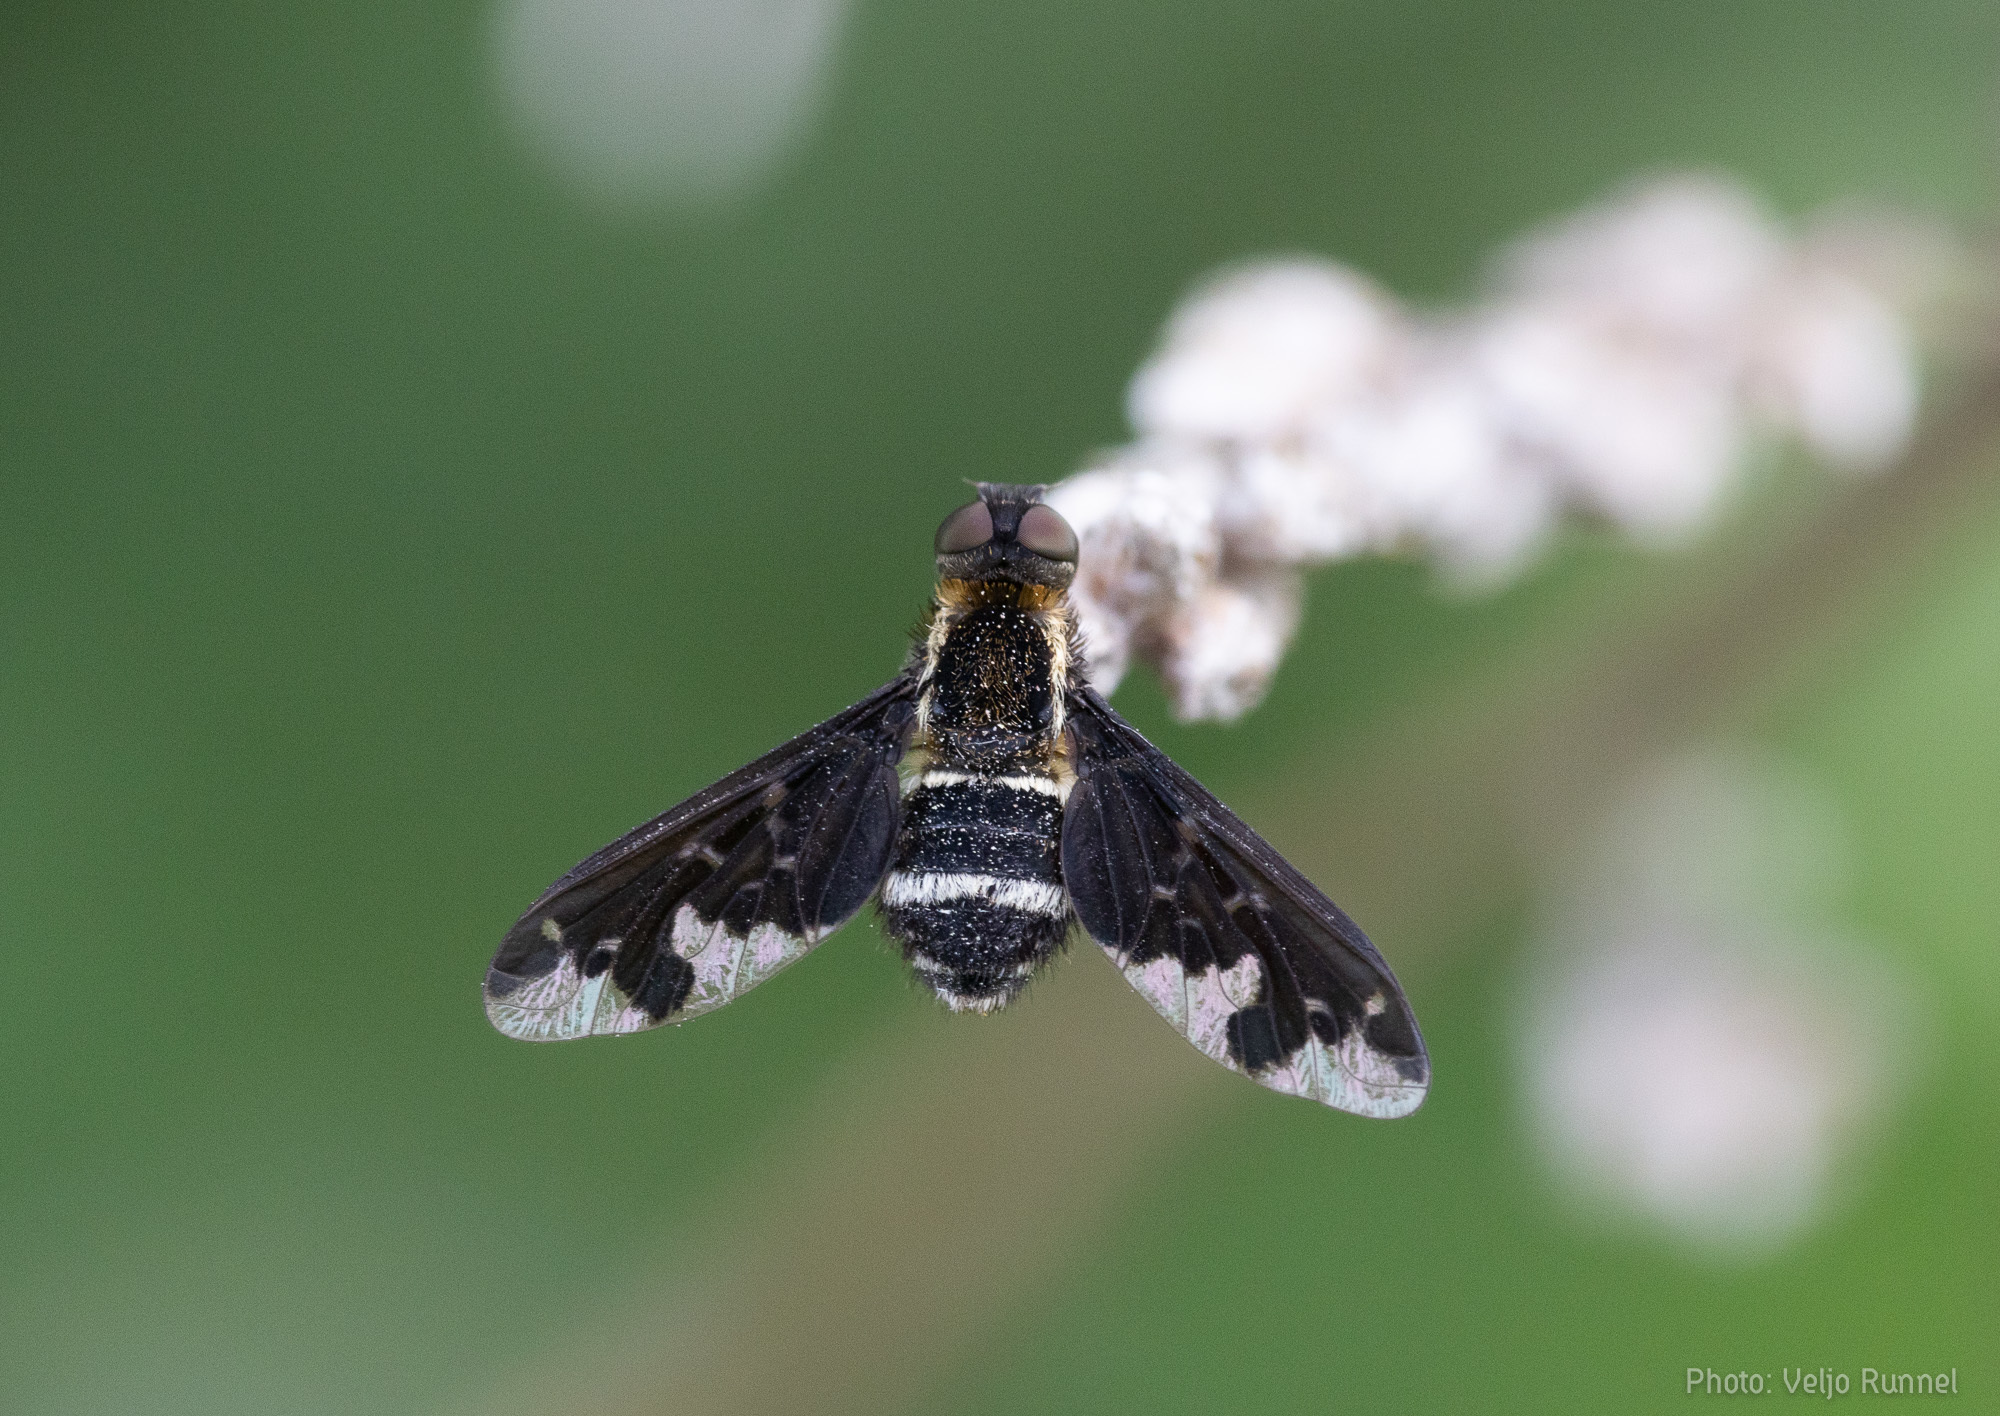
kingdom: Animalia
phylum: Arthropoda
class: Insecta
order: Diptera
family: Bombyliidae
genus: Hemipenthes
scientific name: Hemipenthes maura
